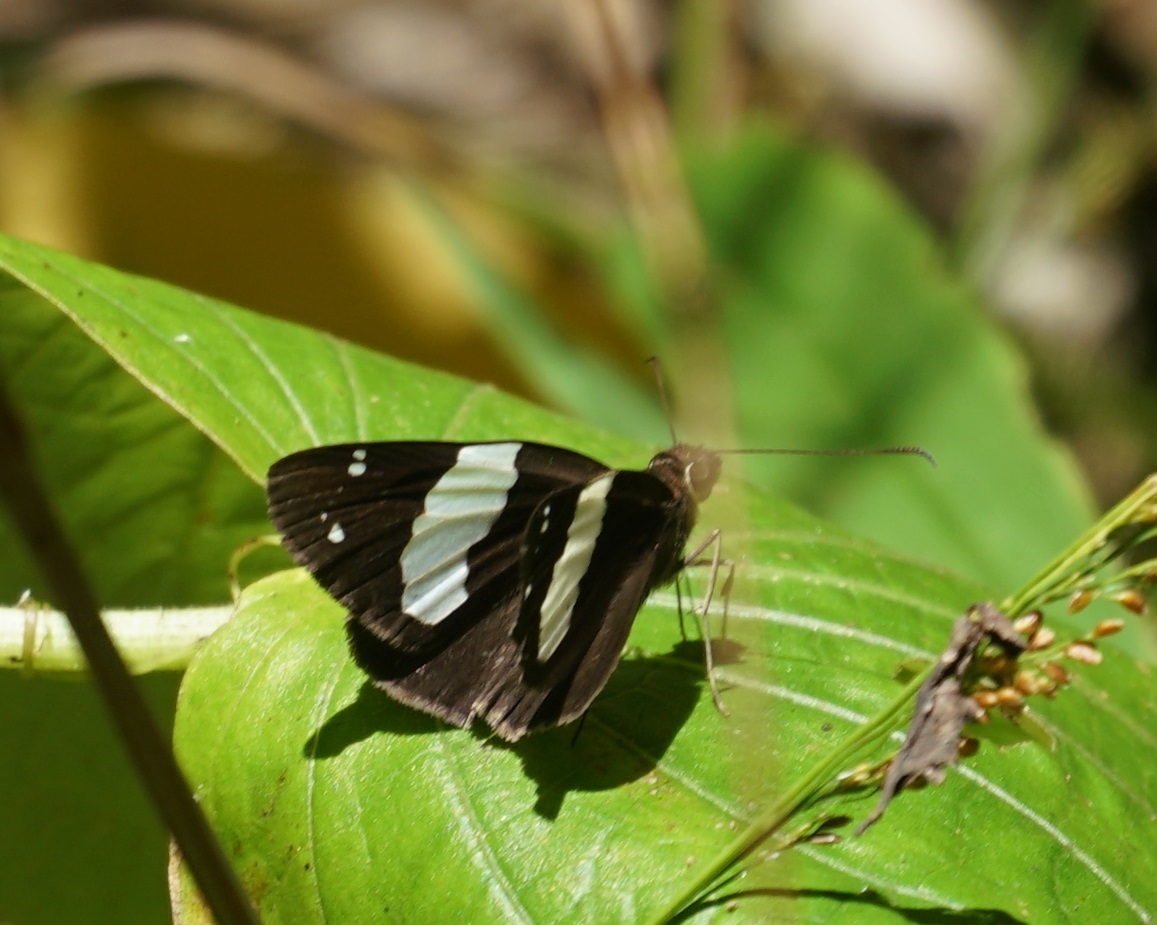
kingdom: Animalia
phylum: Arthropoda
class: Insecta
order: Lepidoptera
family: Hesperiidae
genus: Notocrypta
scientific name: Notocrypta waigensis
